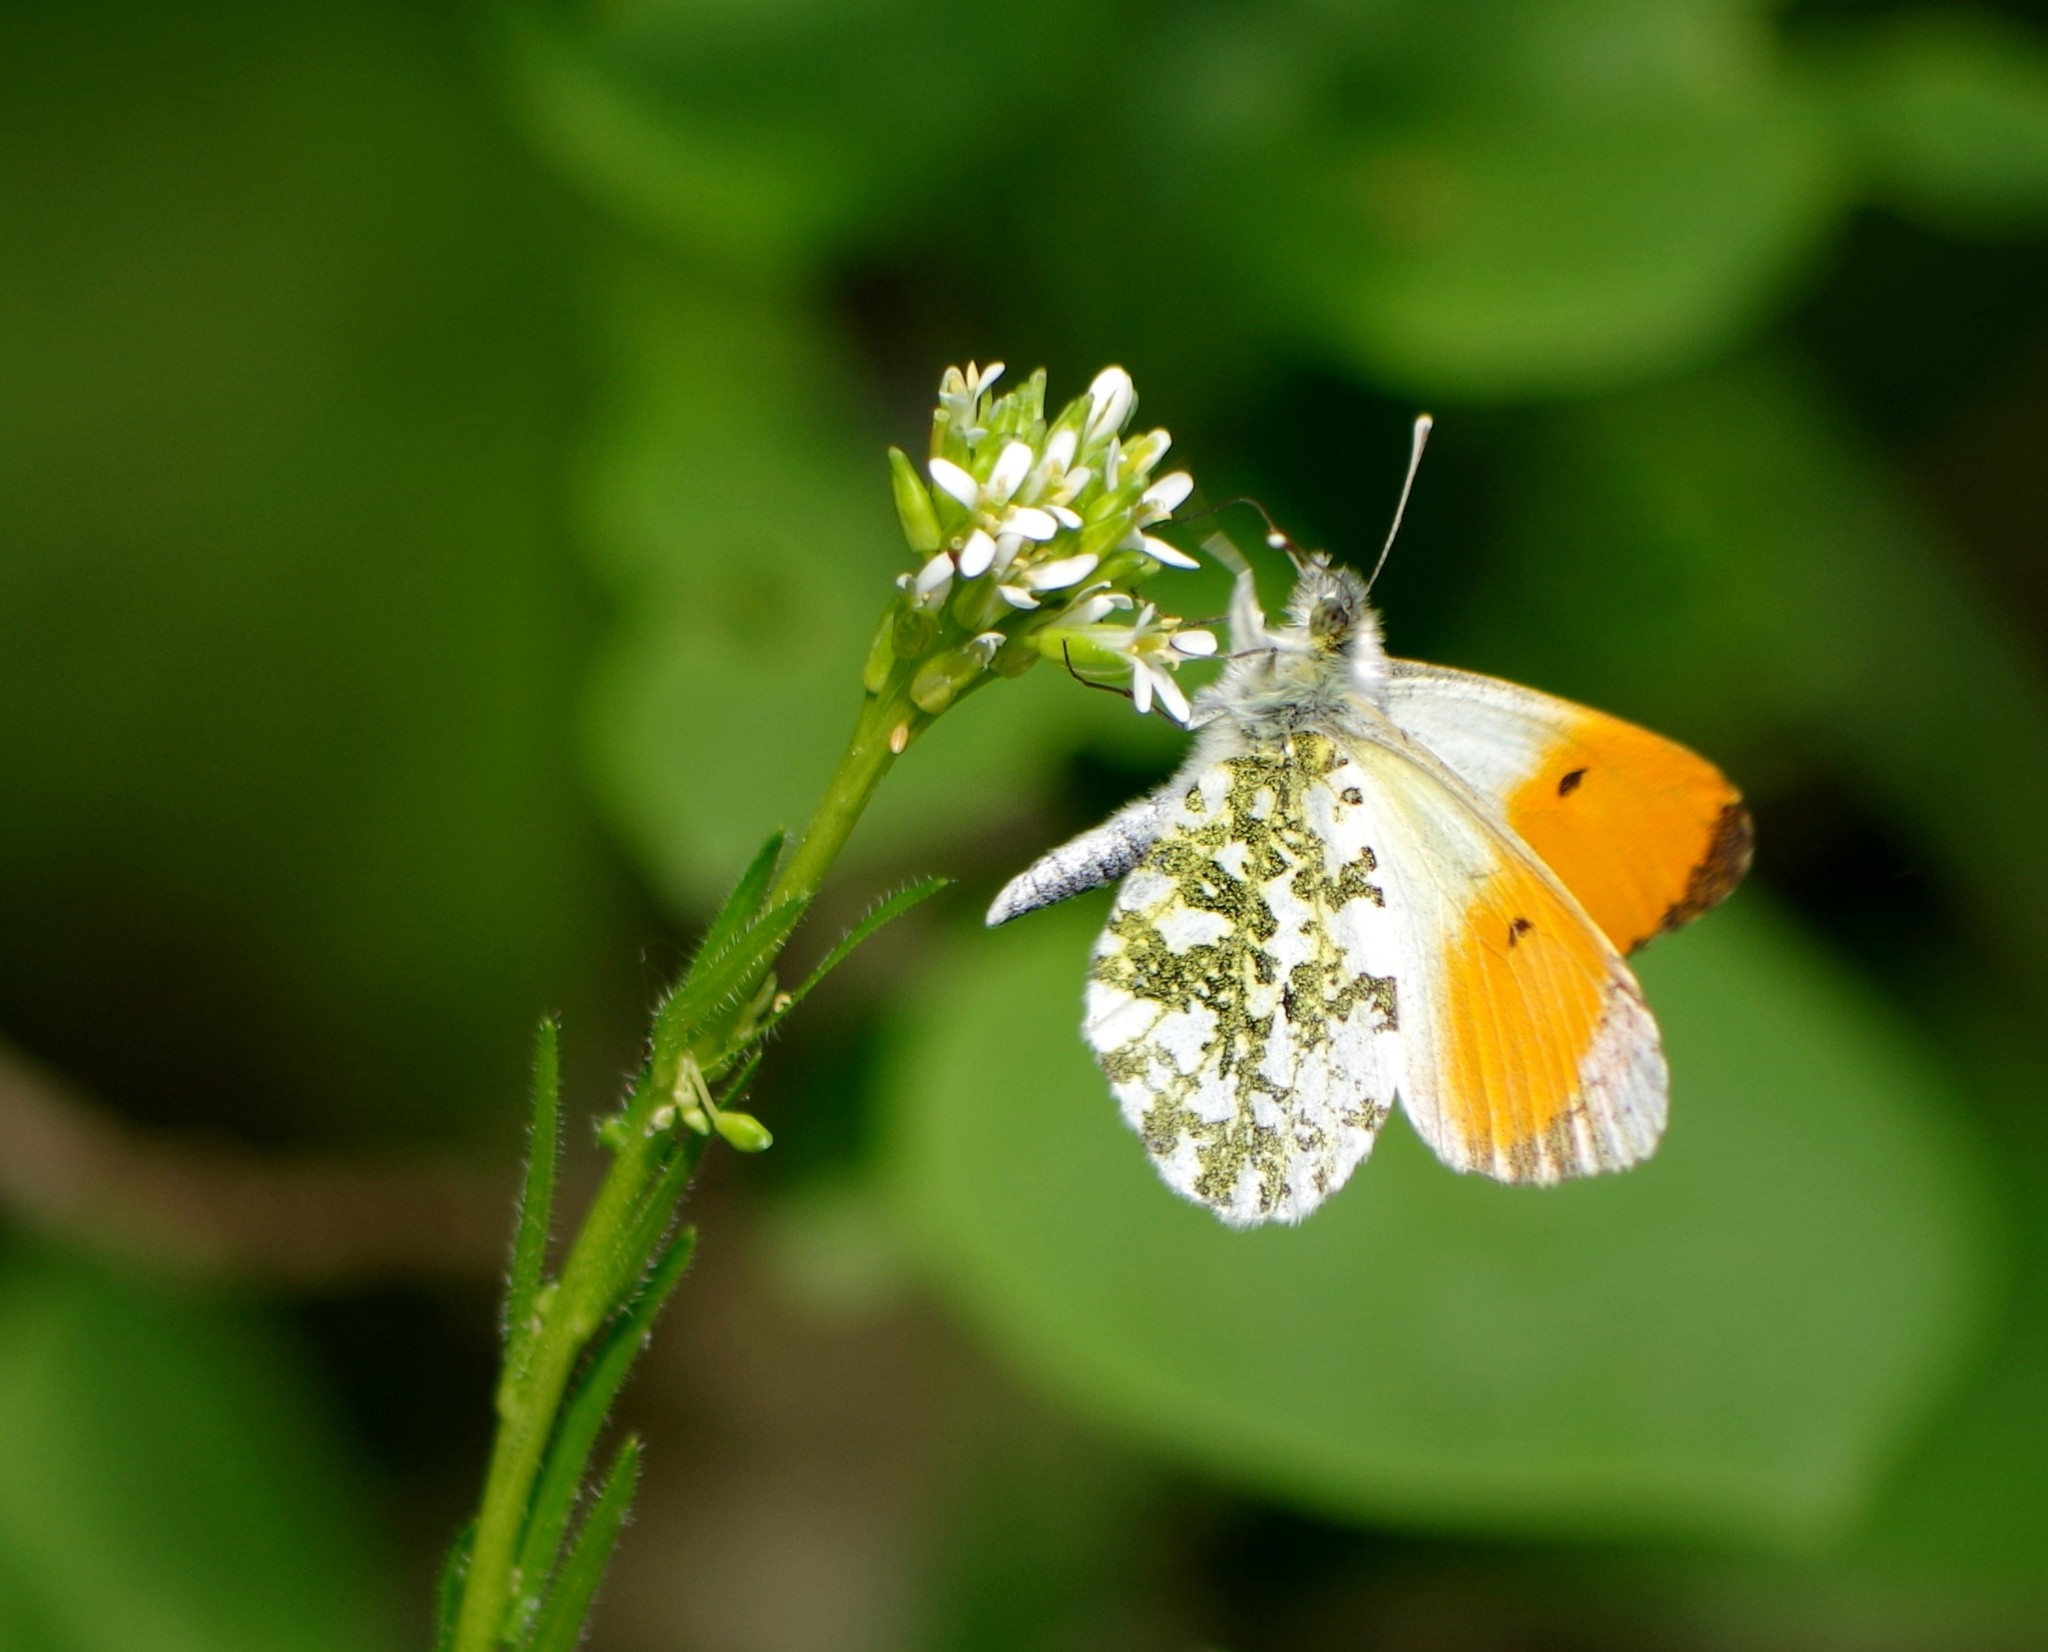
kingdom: Animalia
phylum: Arthropoda
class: Insecta
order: Lepidoptera
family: Pieridae
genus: Anthocharis
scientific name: Anthocharis cardamines
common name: Orange-tip
